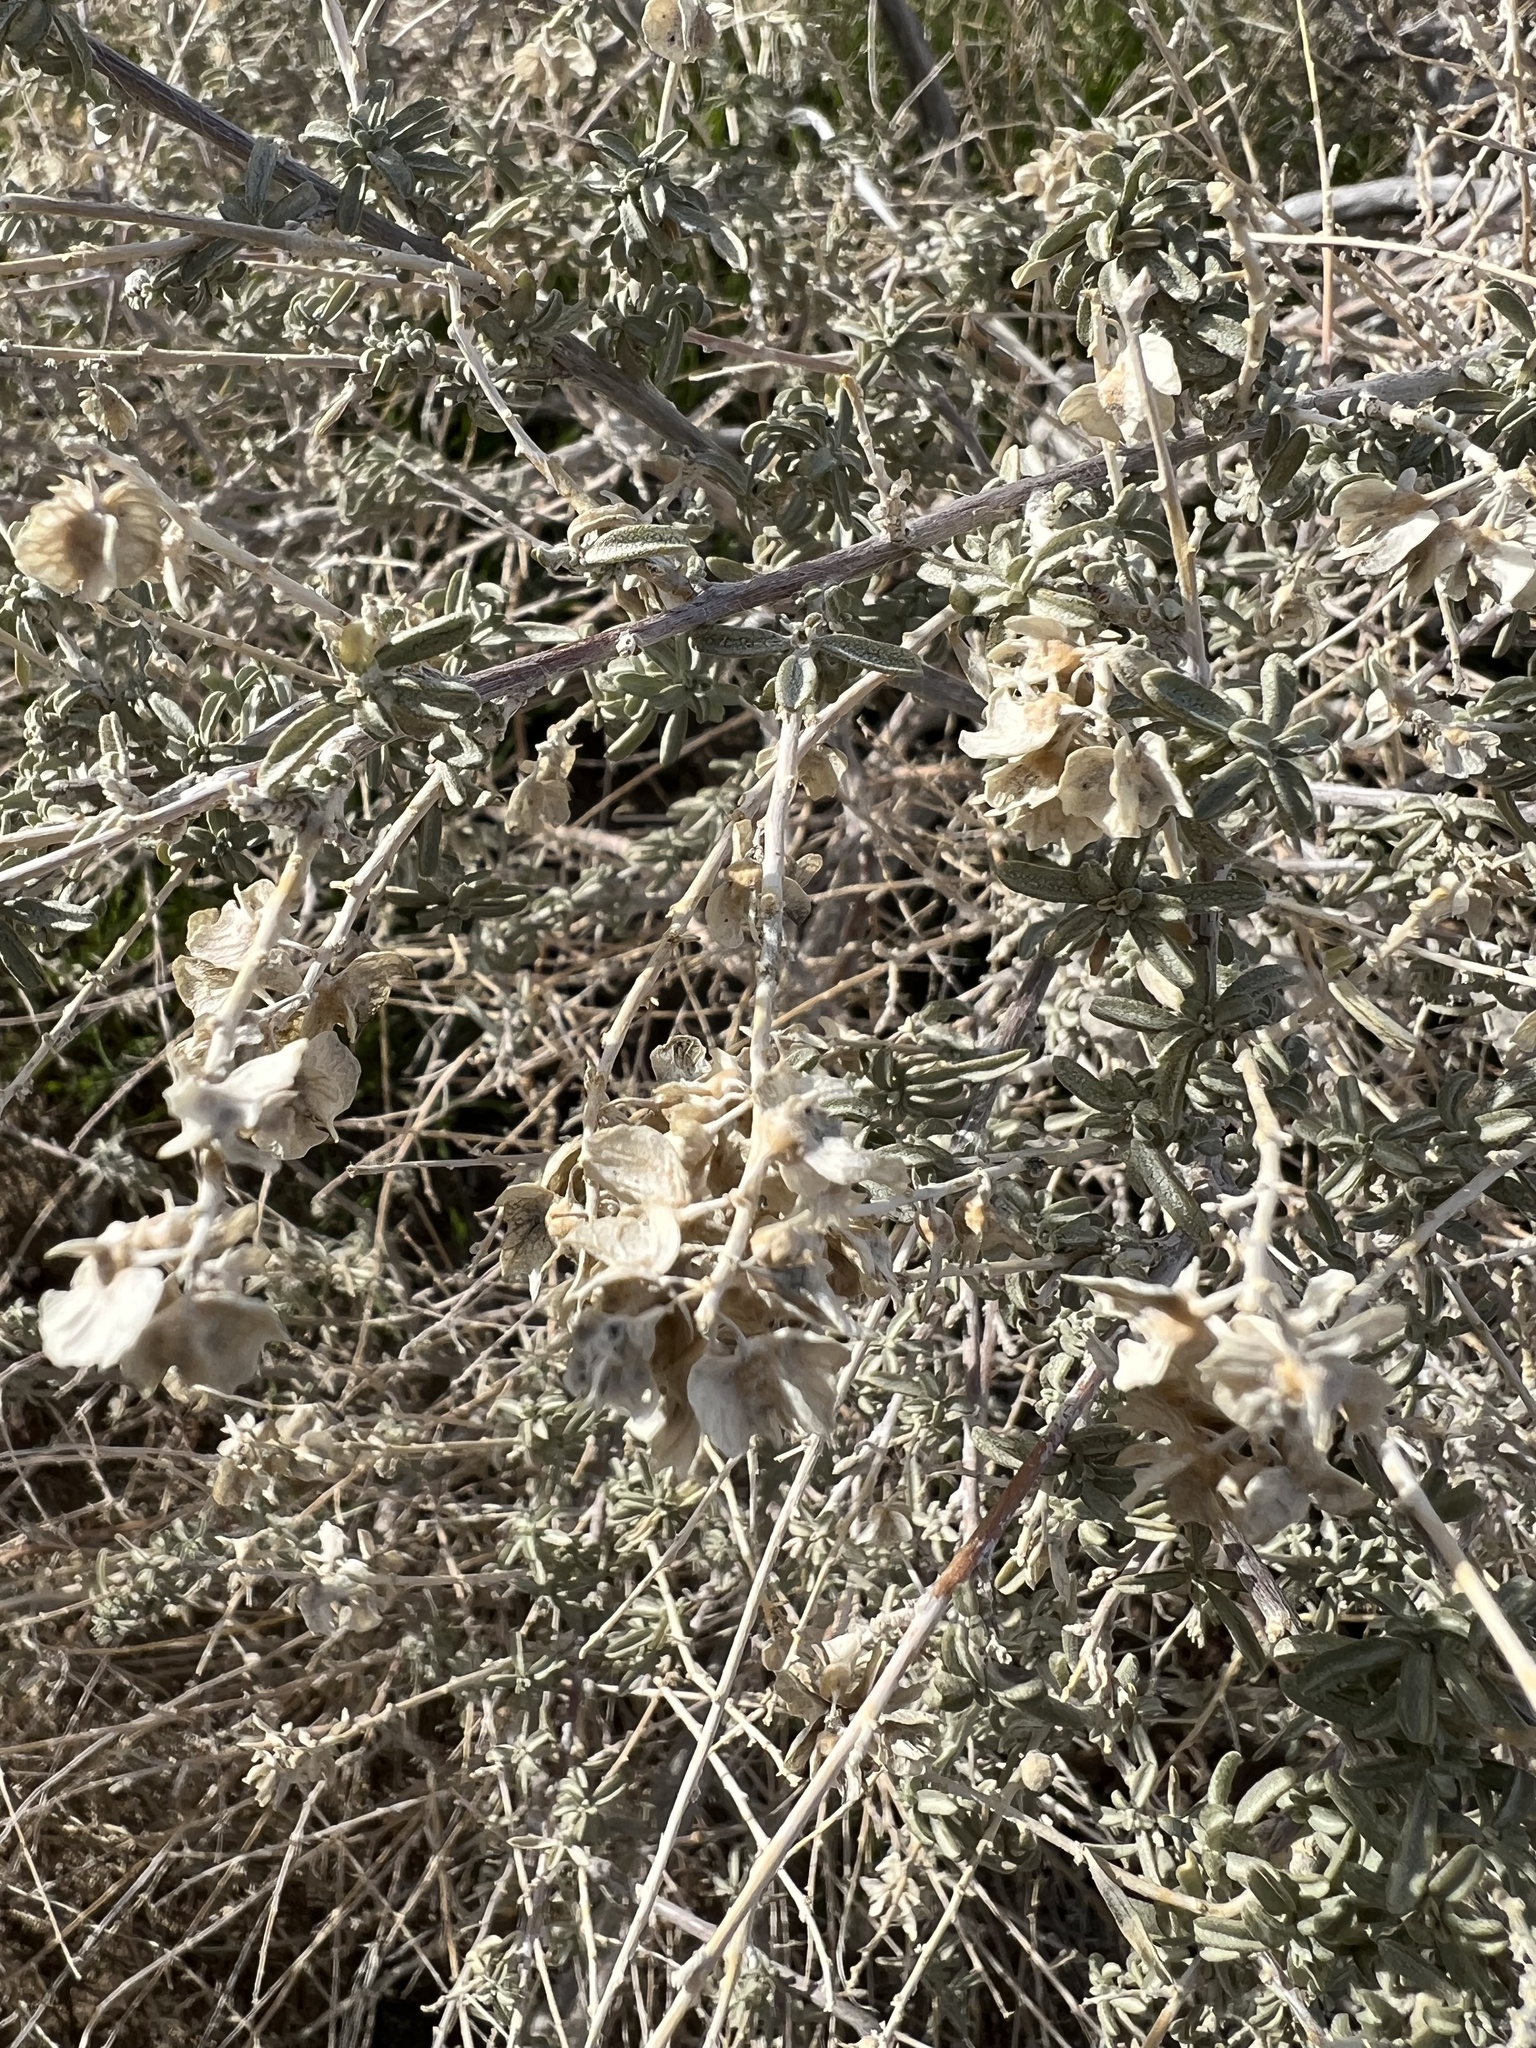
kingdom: Plantae
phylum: Tracheophyta
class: Magnoliopsida
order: Caryophyllales
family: Amaranthaceae
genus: Atriplex
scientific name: Atriplex canescens
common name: Four-wing saltbush
